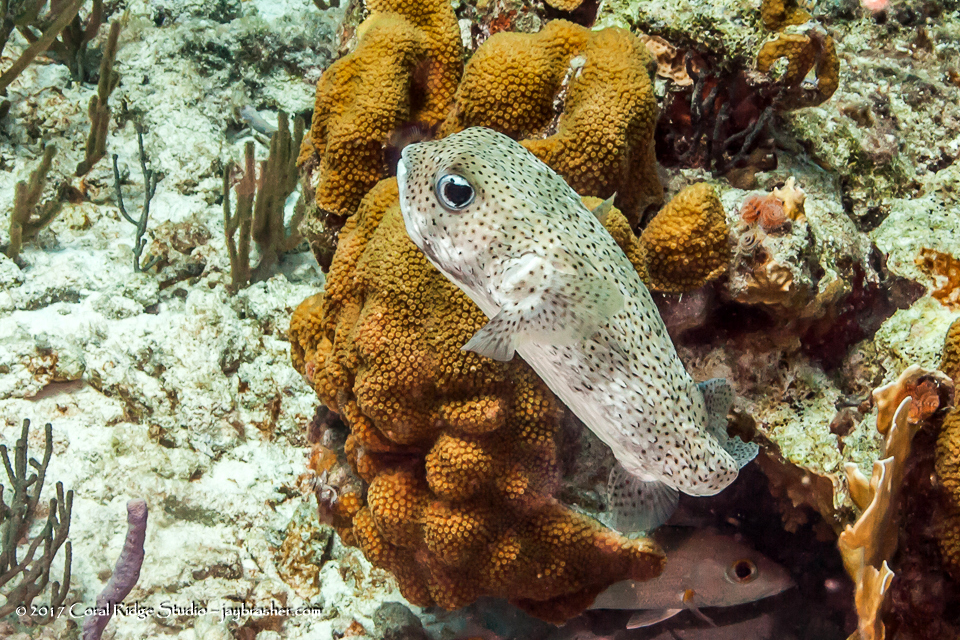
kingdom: Animalia
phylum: Chordata
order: Tetraodontiformes
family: Diodontidae
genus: Diodon
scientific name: Diodon hystrix
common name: Giant porcupinefish
